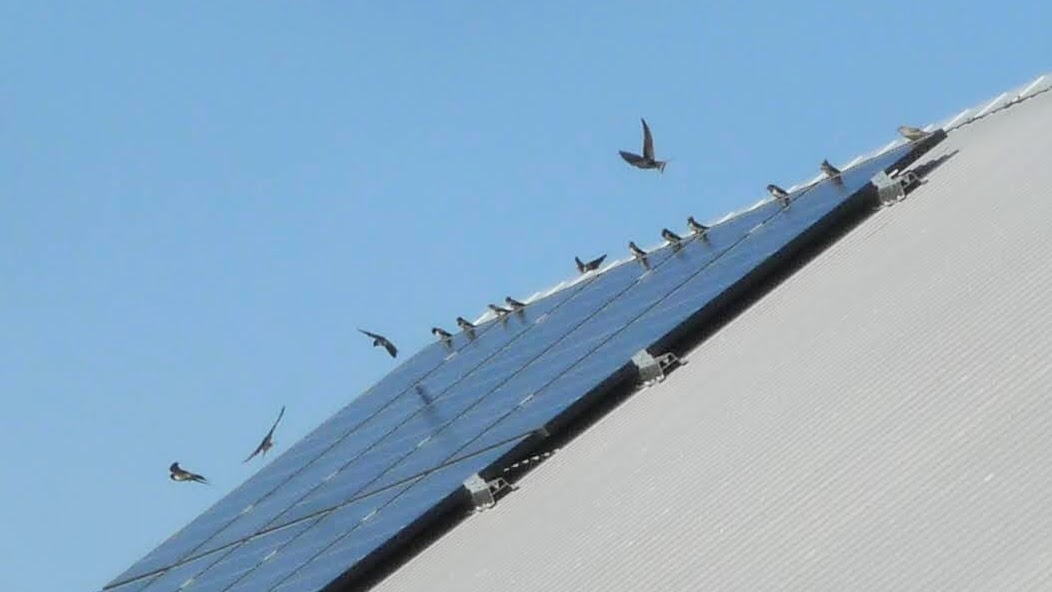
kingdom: Animalia
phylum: Chordata
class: Aves
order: Passeriformes
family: Hirundinidae
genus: Hirundo
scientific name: Hirundo rustica
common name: Barn swallow
